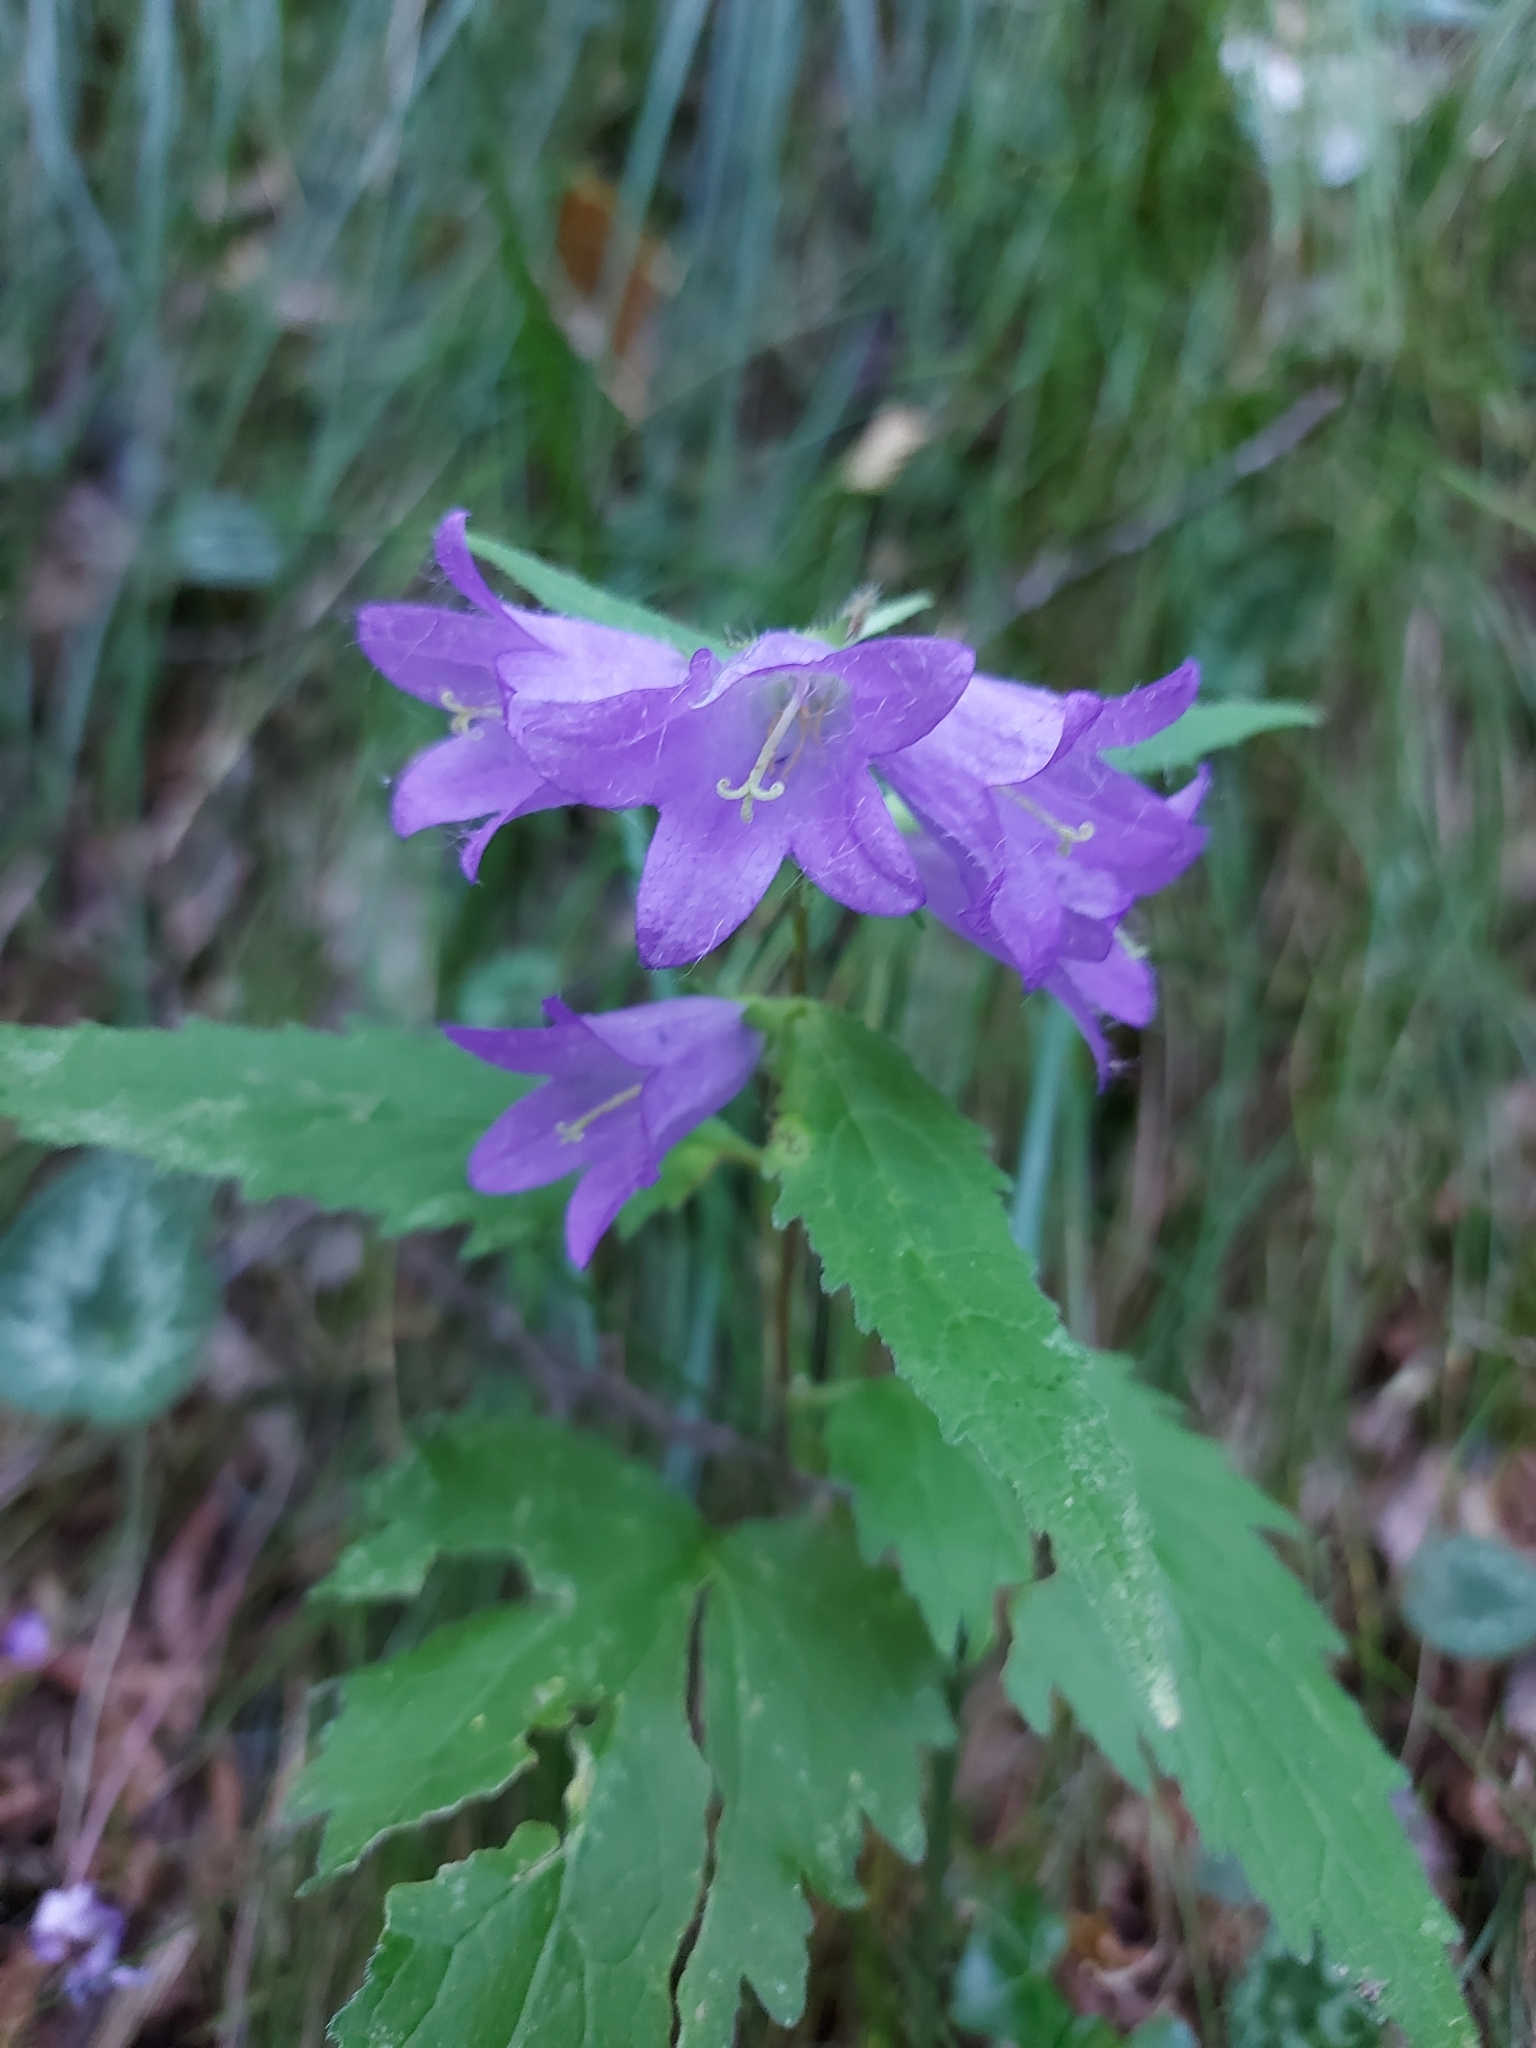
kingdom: Plantae
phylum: Tracheophyta
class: Magnoliopsida
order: Asterales
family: Campanulaceae
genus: Campanula
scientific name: Campanula trachelium
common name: Nettle-leaved bellflower
